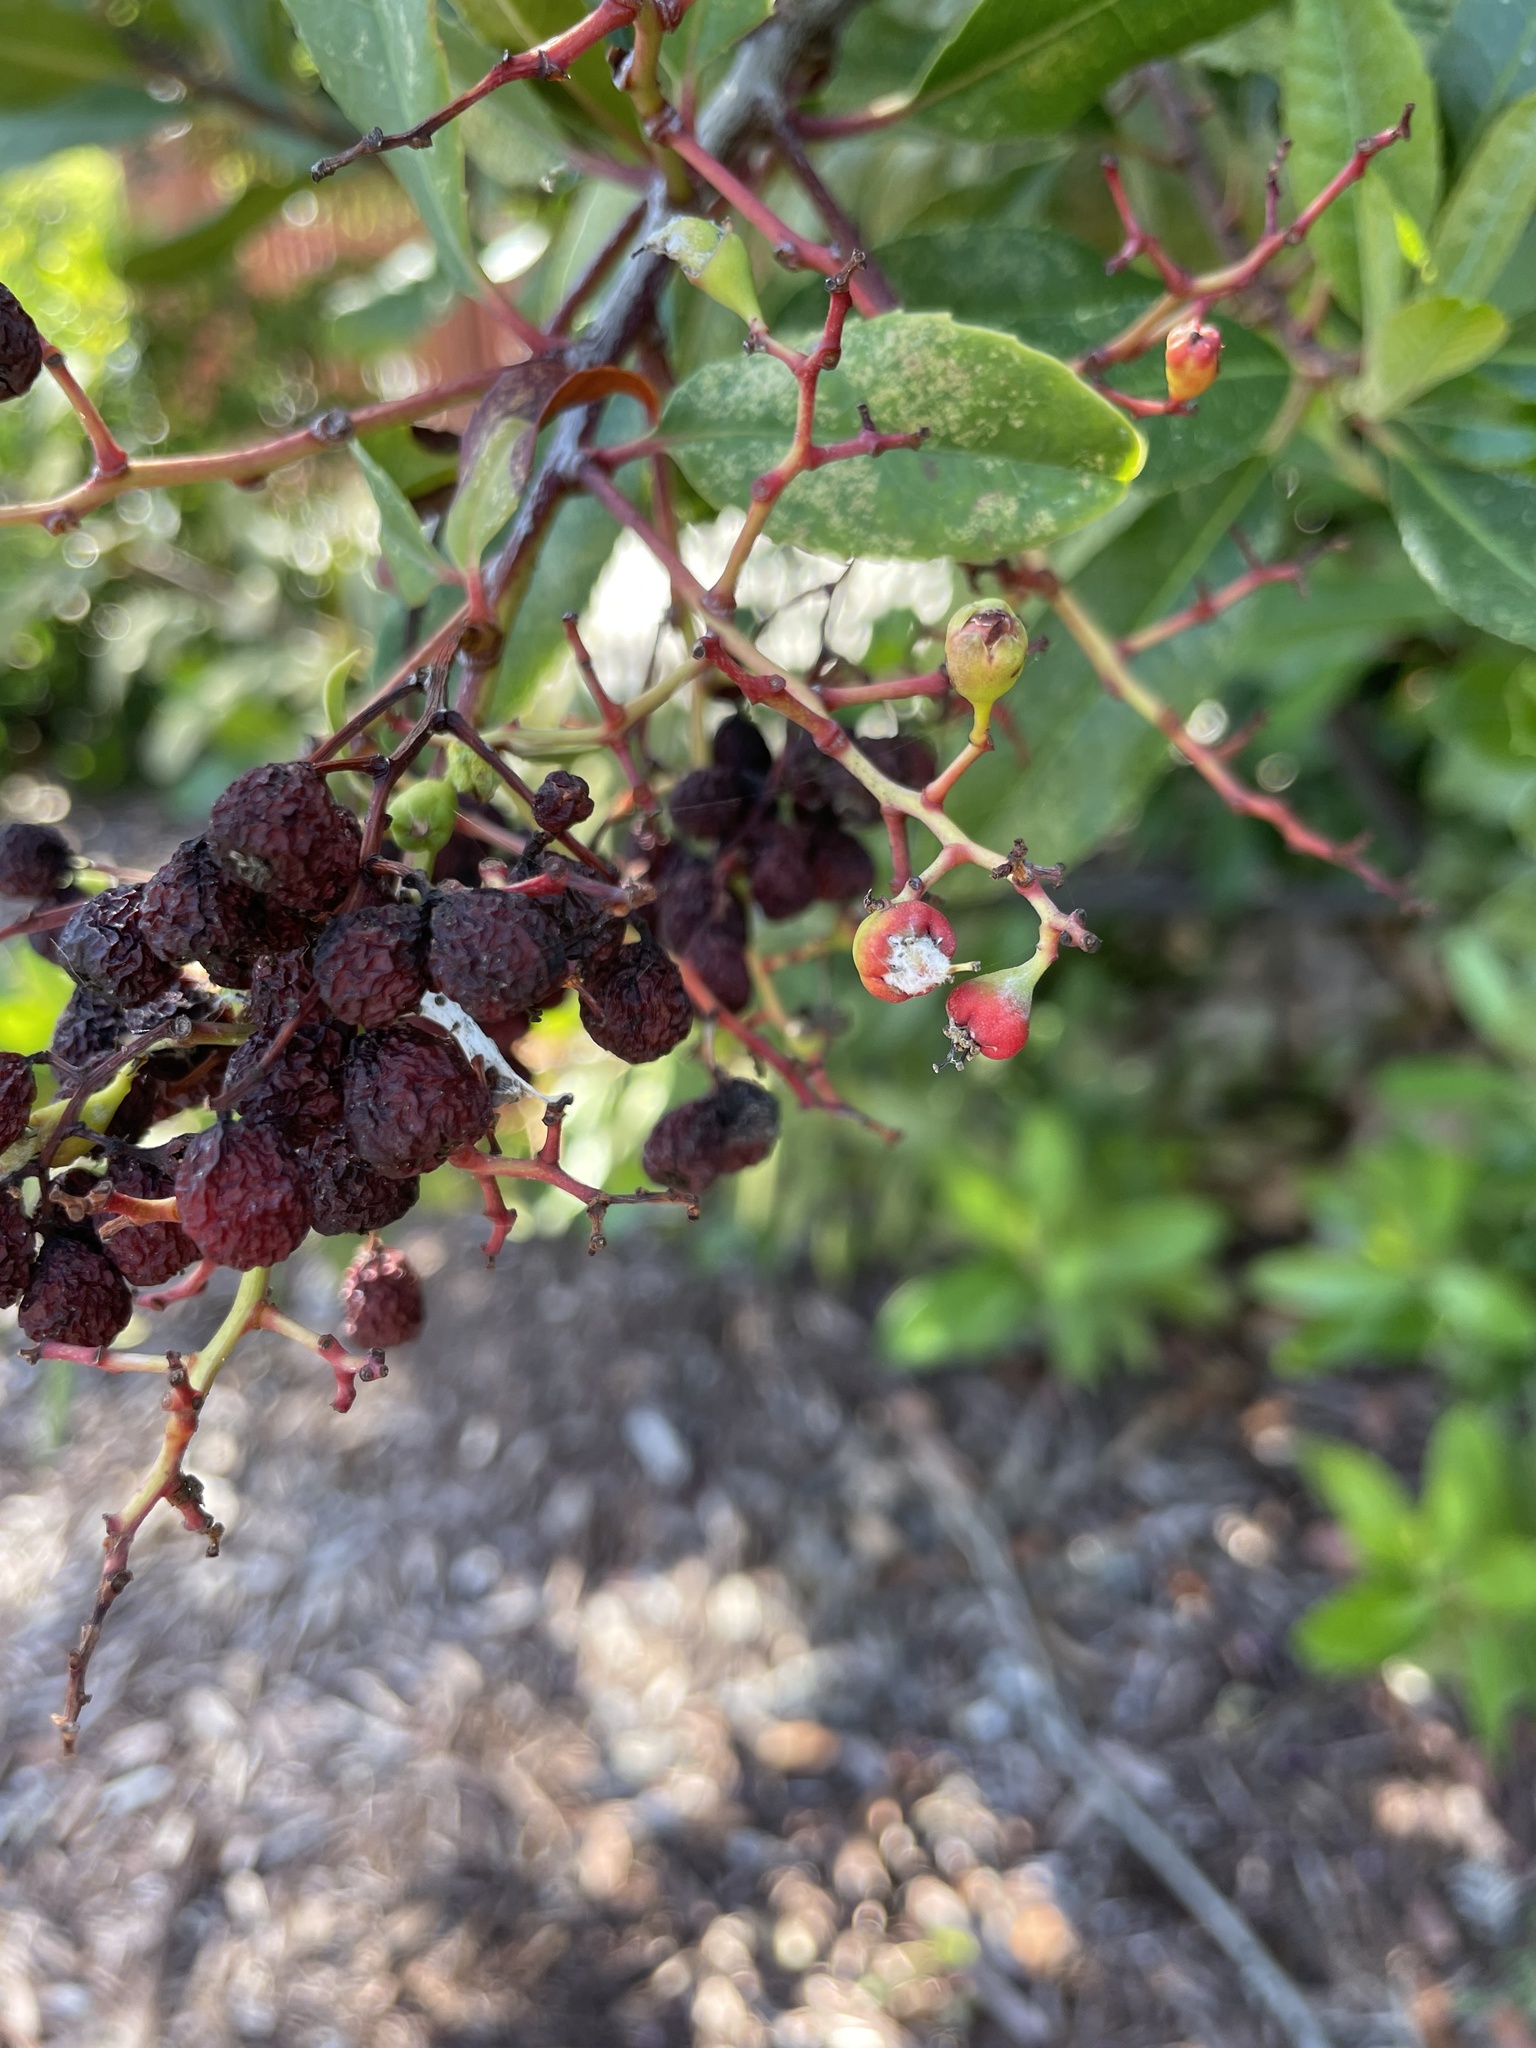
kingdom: Animalia
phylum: Arthropoda
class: Insecta
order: Diptera
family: Cecidomyiidae
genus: Asphondylia
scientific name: Asphondylia photiniae
